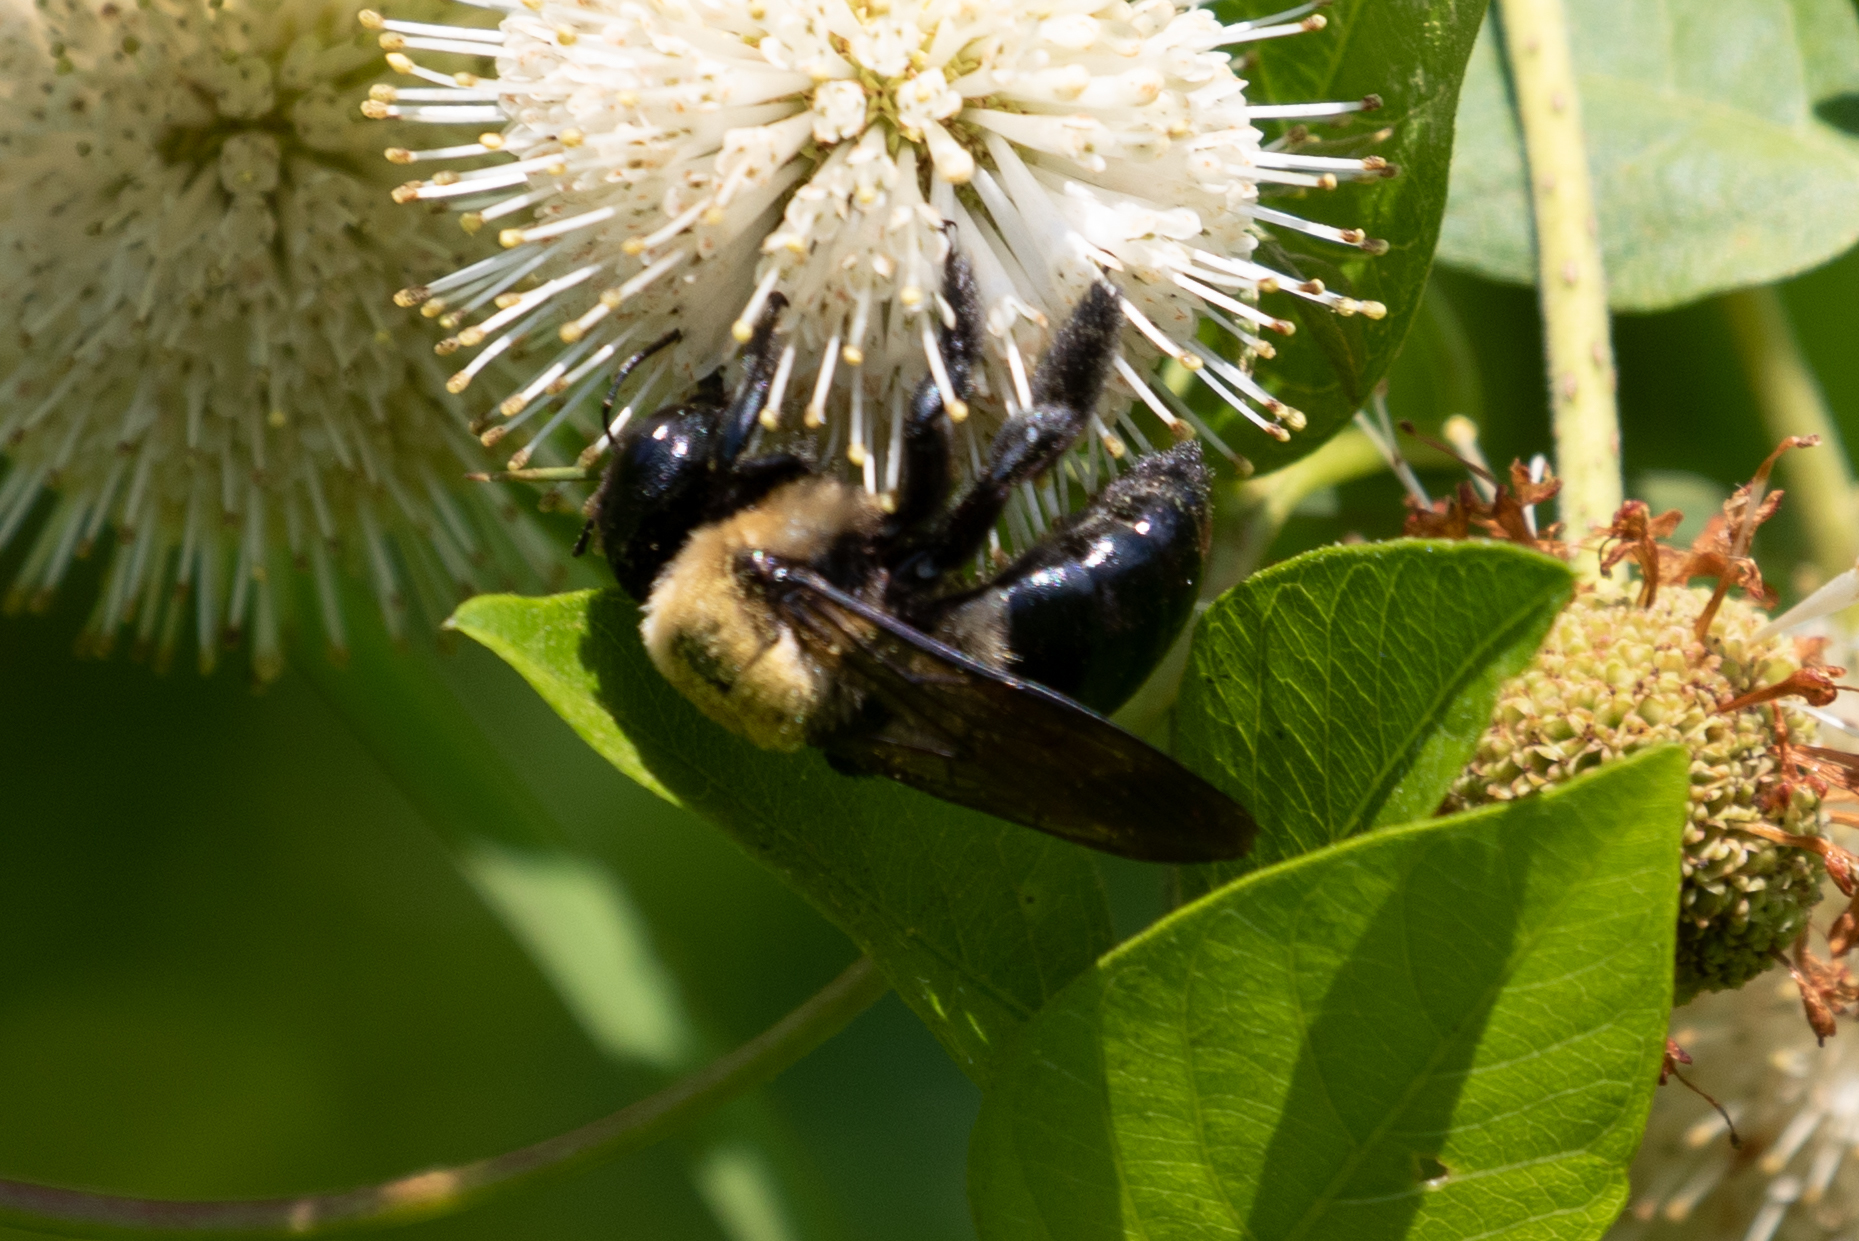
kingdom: Animalia
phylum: Arthropoda
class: Insecta
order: Hymenoptera
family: Apidae
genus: Xylocopa
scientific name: Xylocopa virginica
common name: Carpenter bee
